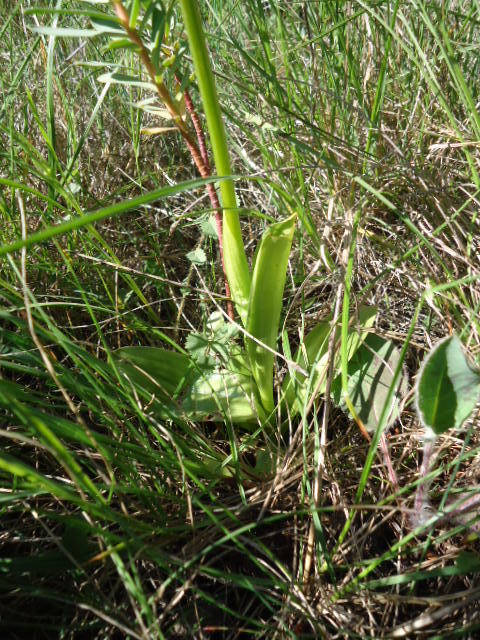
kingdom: Plantae
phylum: Tracheophyta
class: Liliopsida
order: Asparagales
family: Orchidaceae
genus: Orchis
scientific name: Orchis purpurea
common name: Lady orchid
